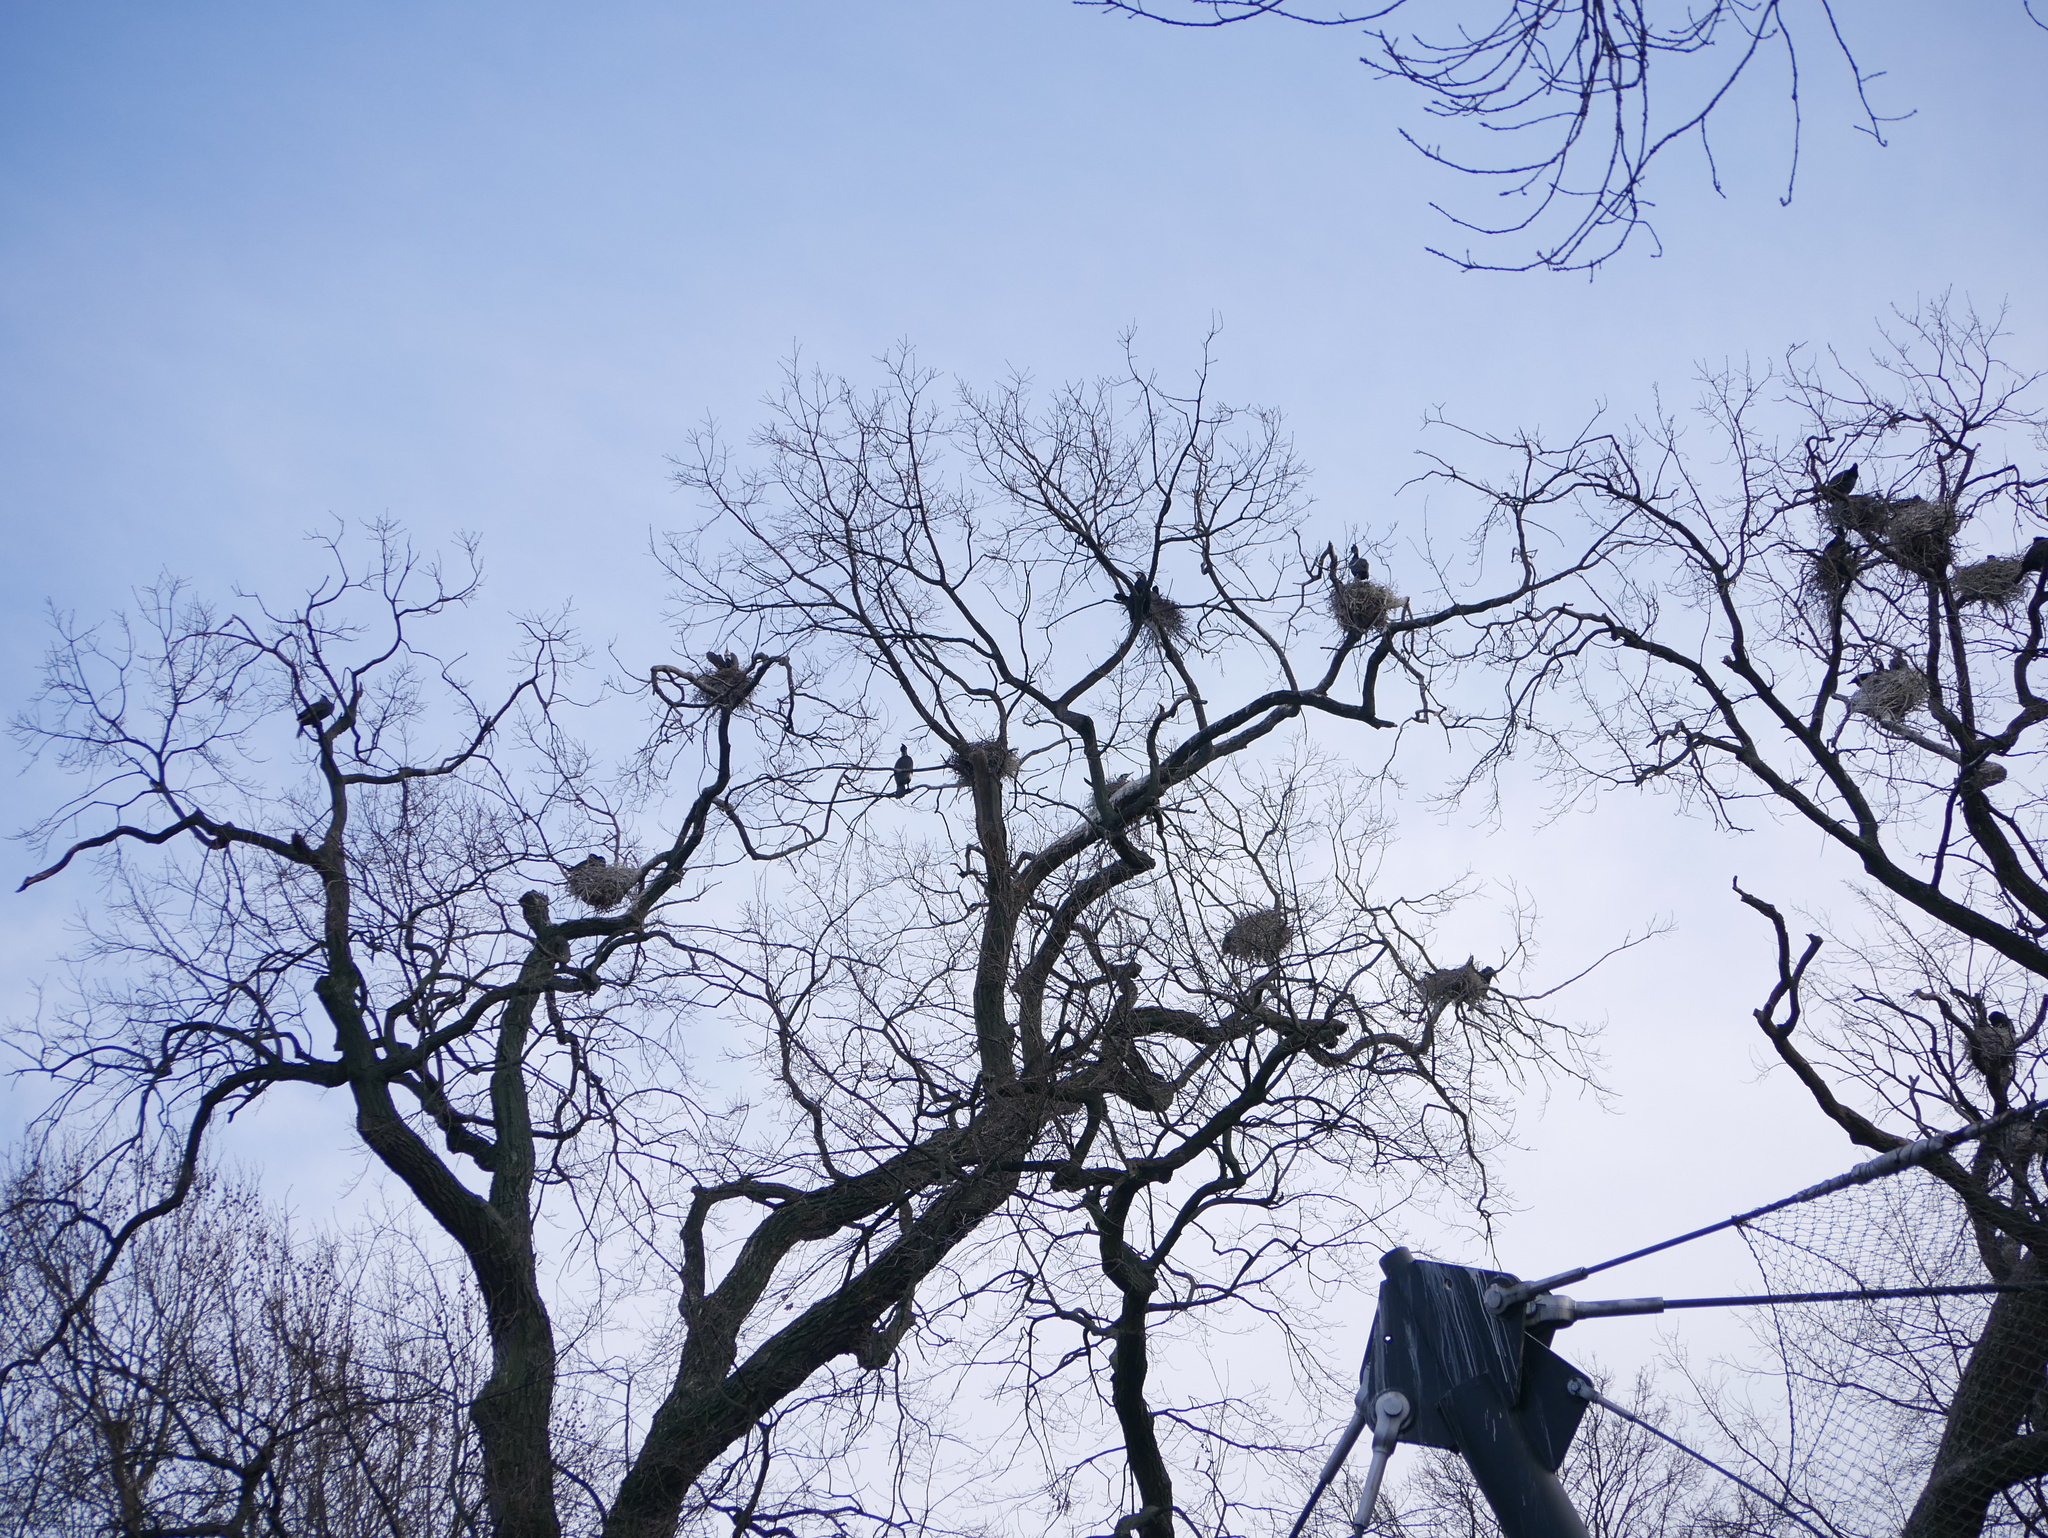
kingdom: Animalia
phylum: Chordata
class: Aves
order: Suliformes
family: Phalacrocoracidae
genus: Phalacrocorax
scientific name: Phalacrocorax carbo
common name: Great cormorant
